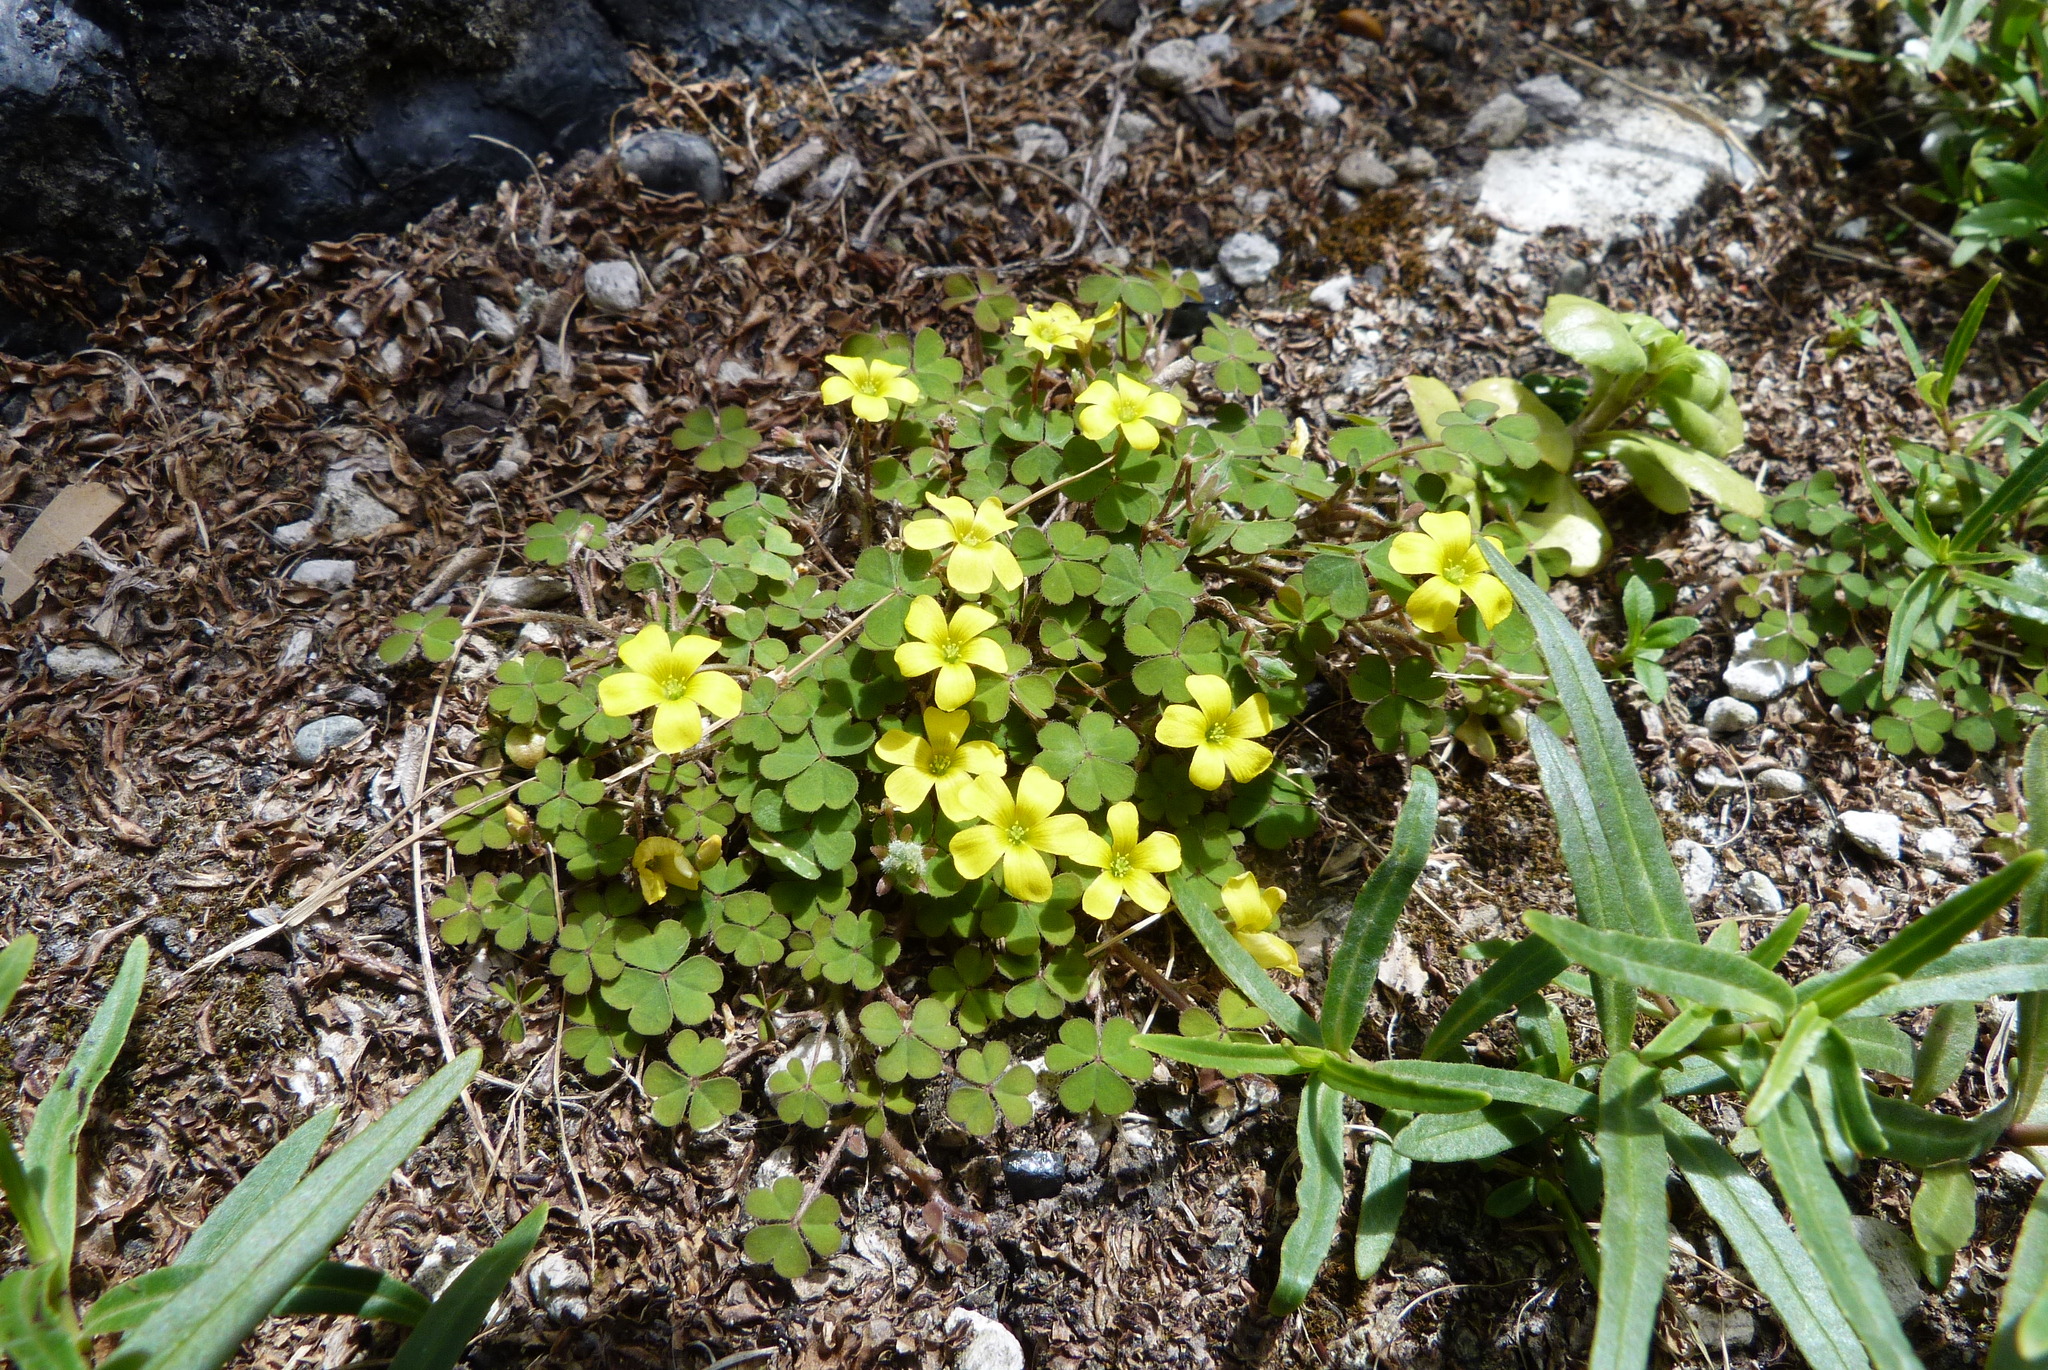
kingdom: Plantae
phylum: Tracheophyta
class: Magnoliopsida
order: Oxalidales
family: Oxalidaceae
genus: Oxalis
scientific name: Oxalis exilis
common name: Least yellow-sorrel
